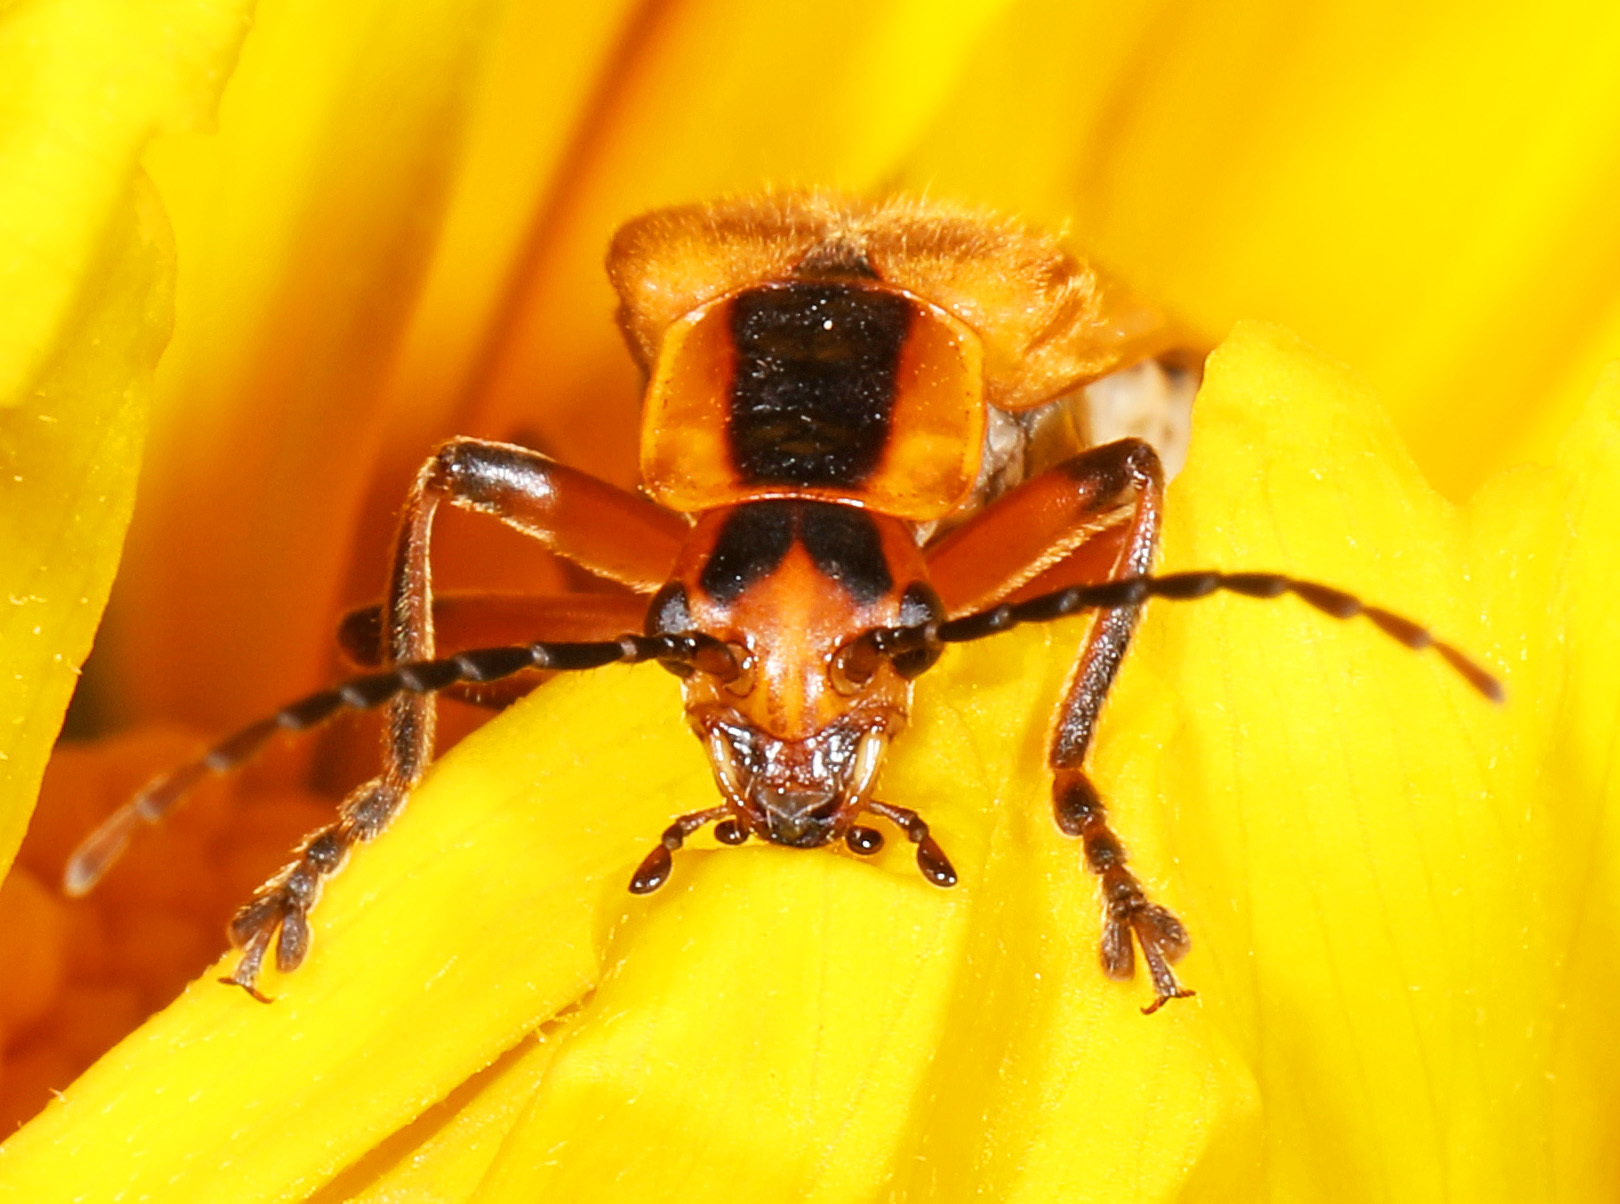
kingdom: Animalia
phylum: Arthropoda
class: Insecta
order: Coleoptera
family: Cantharidae
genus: Chauliognathus
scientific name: Chauliognathus marginatus
